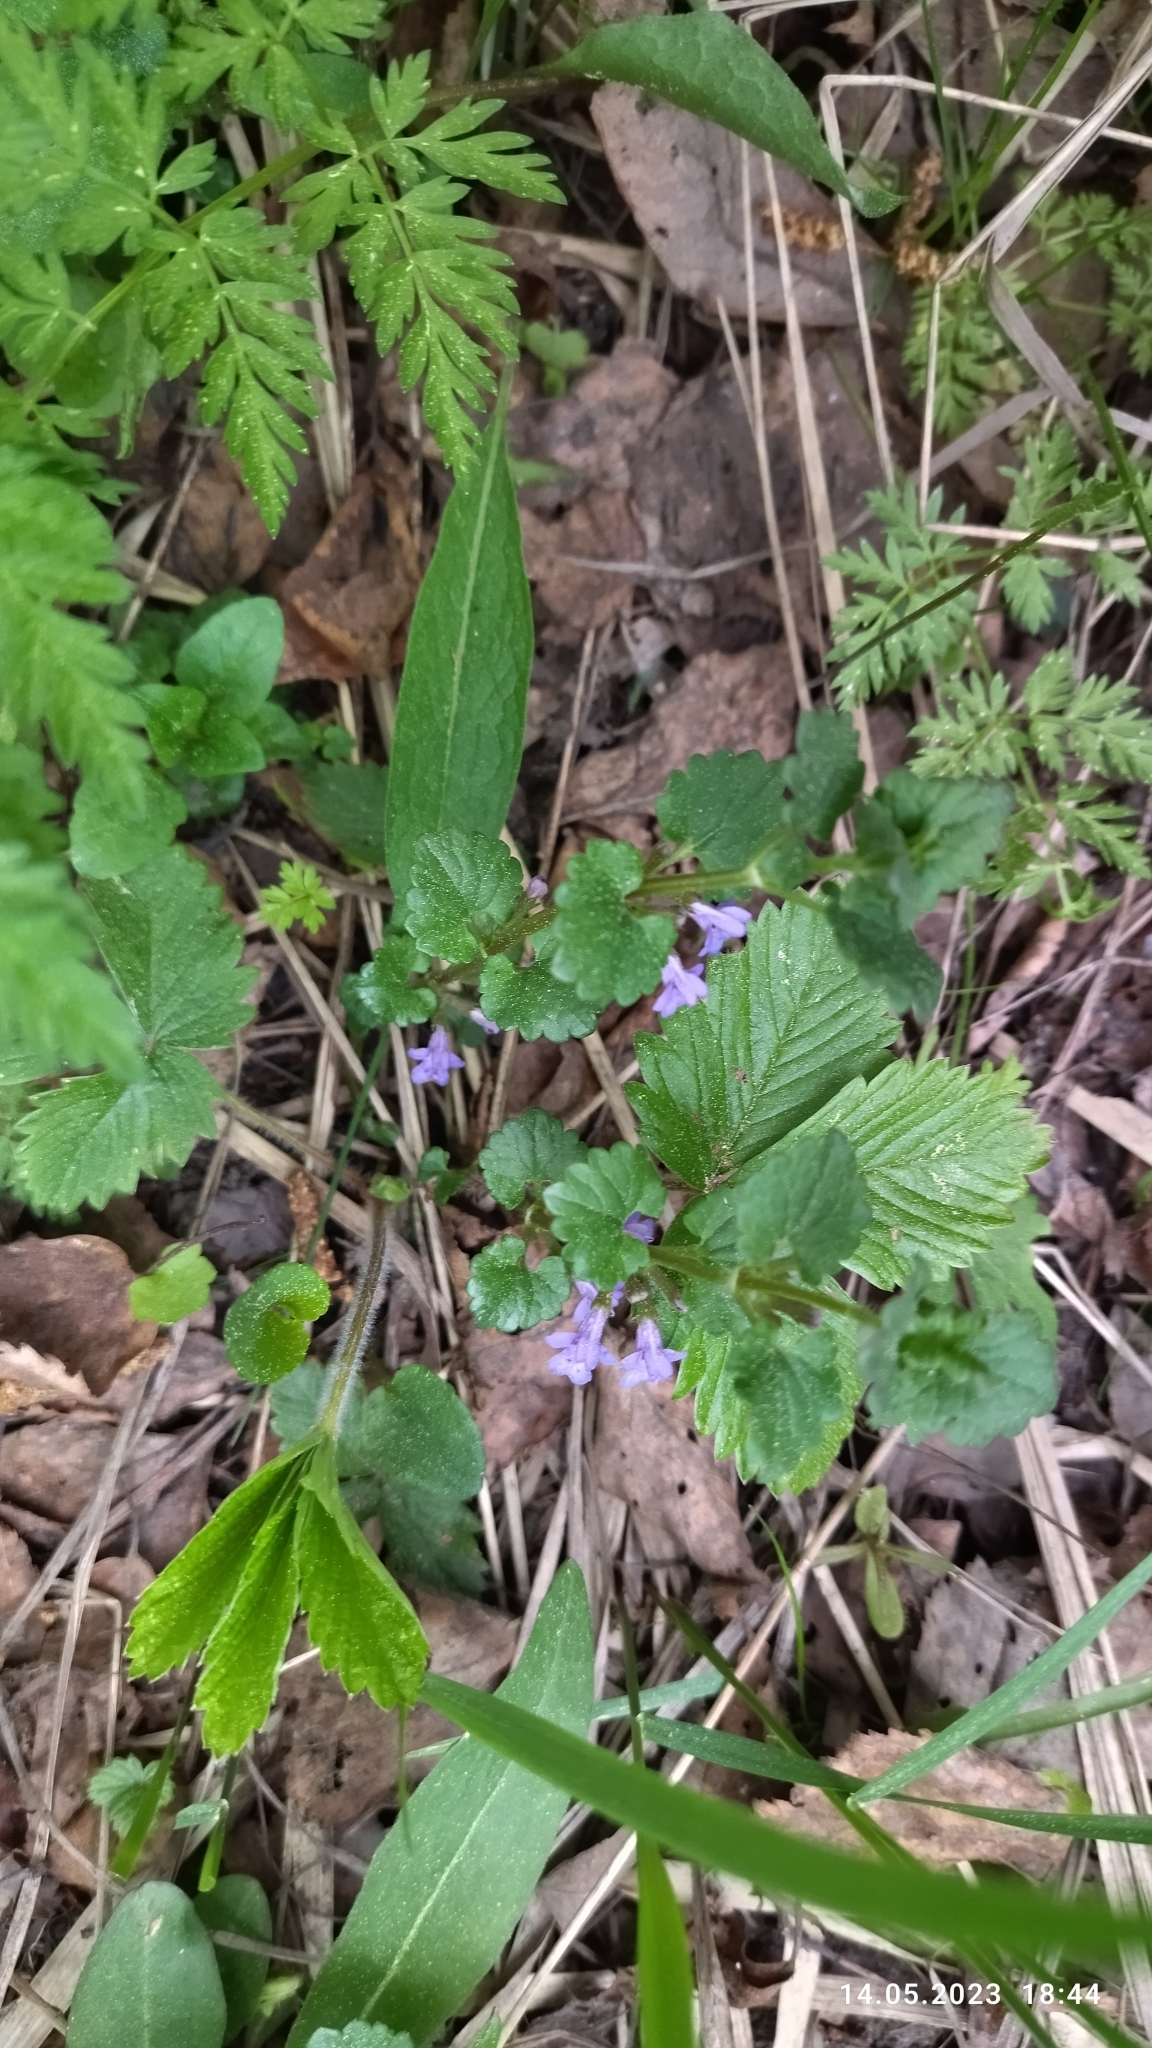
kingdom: Plantae
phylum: Tracheophyta
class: Magnoliopsida
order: Lamiales
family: Lamiaceae
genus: Glechoma
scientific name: Glechoma hederacea
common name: Ground ivy
